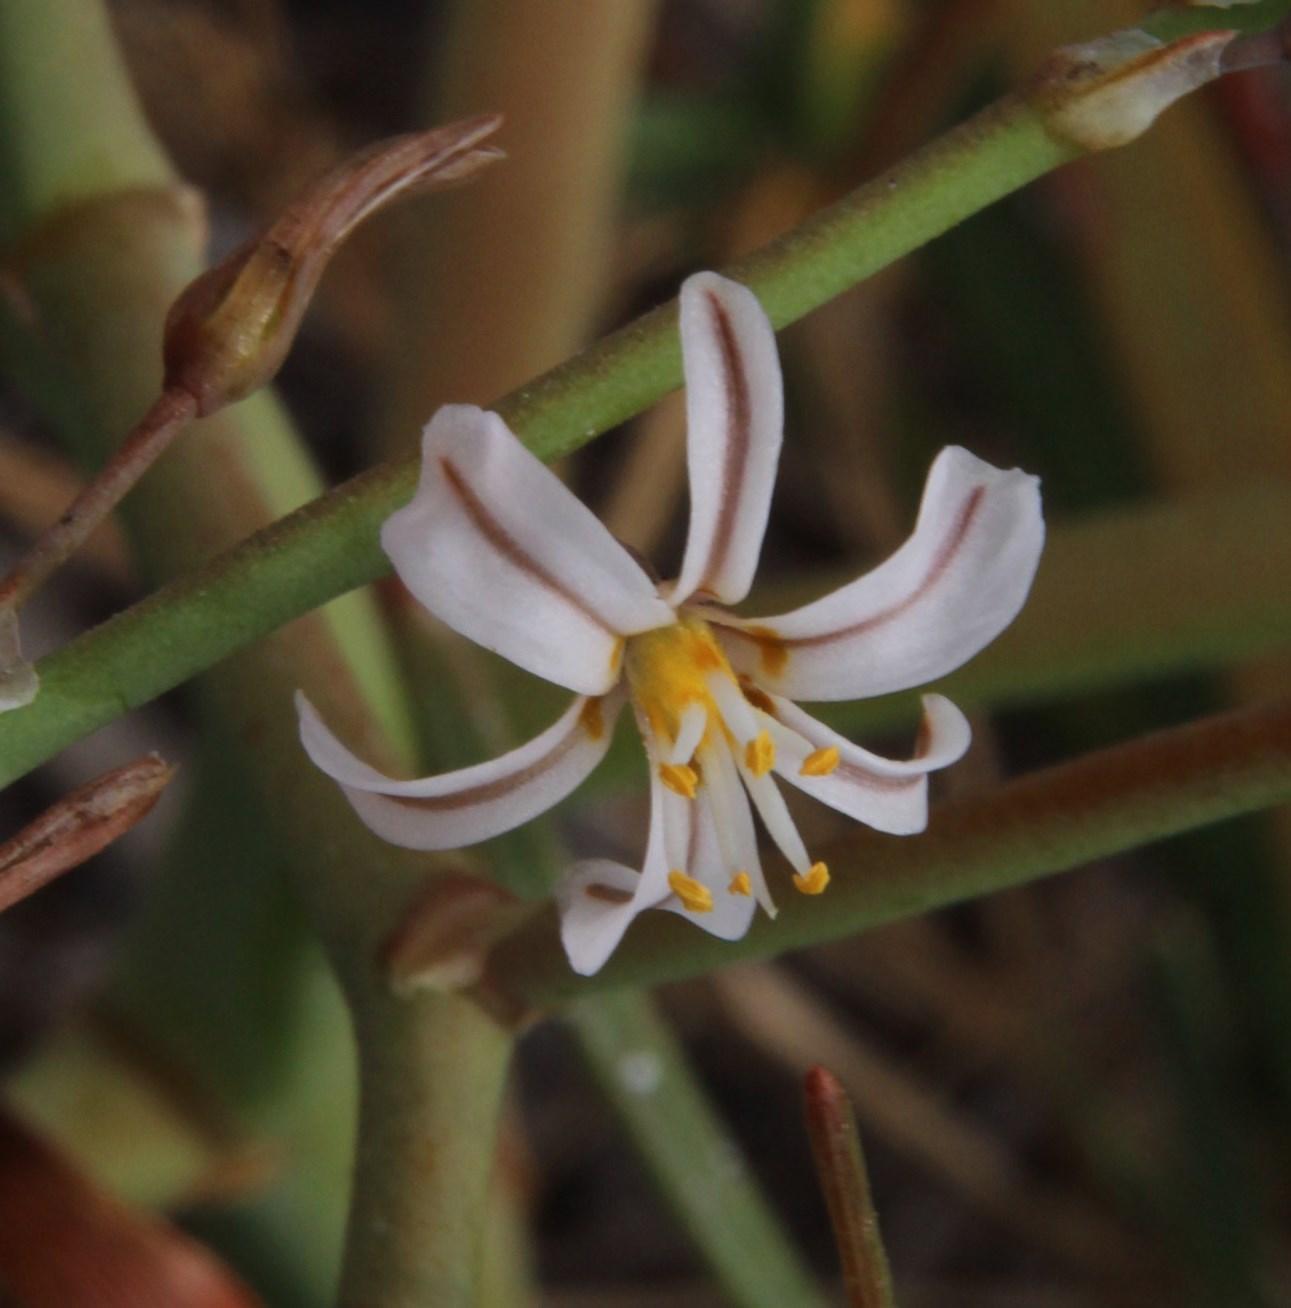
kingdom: Plantae
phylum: Tracheophyta
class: Liliopsida
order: Asparagales
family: Asphodelaceae
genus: Trachyandra
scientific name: Trachyandra divaricata
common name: Dune onionweed
